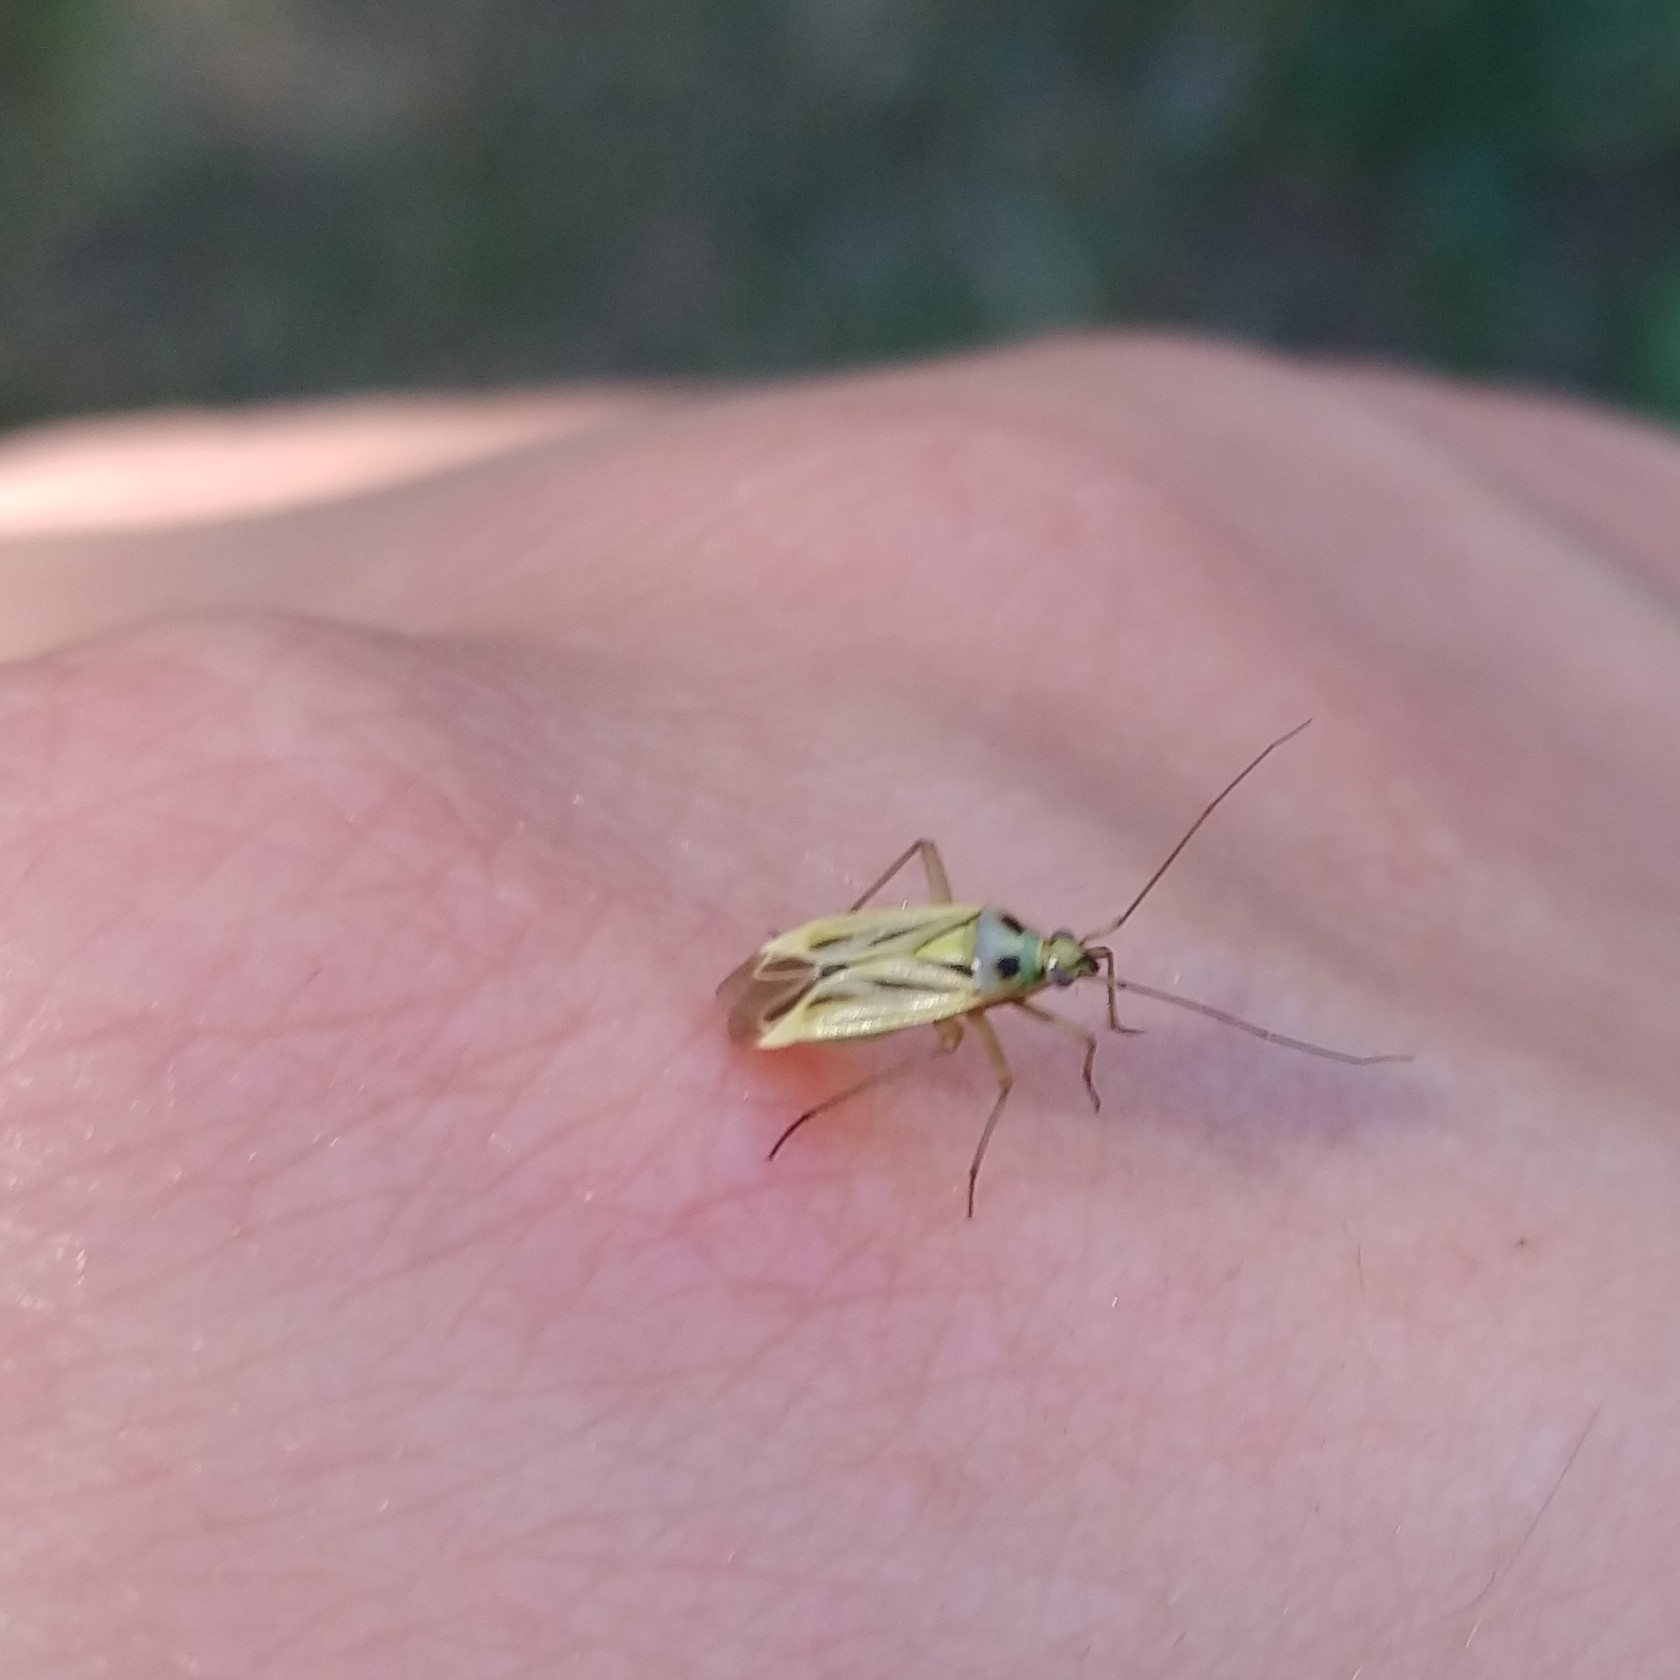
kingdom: Animalia
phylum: Arthropoda
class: Insecta
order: Hemiptera
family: Miridae
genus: Stenotus
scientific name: Stenotus binotatus
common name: Plant bug
